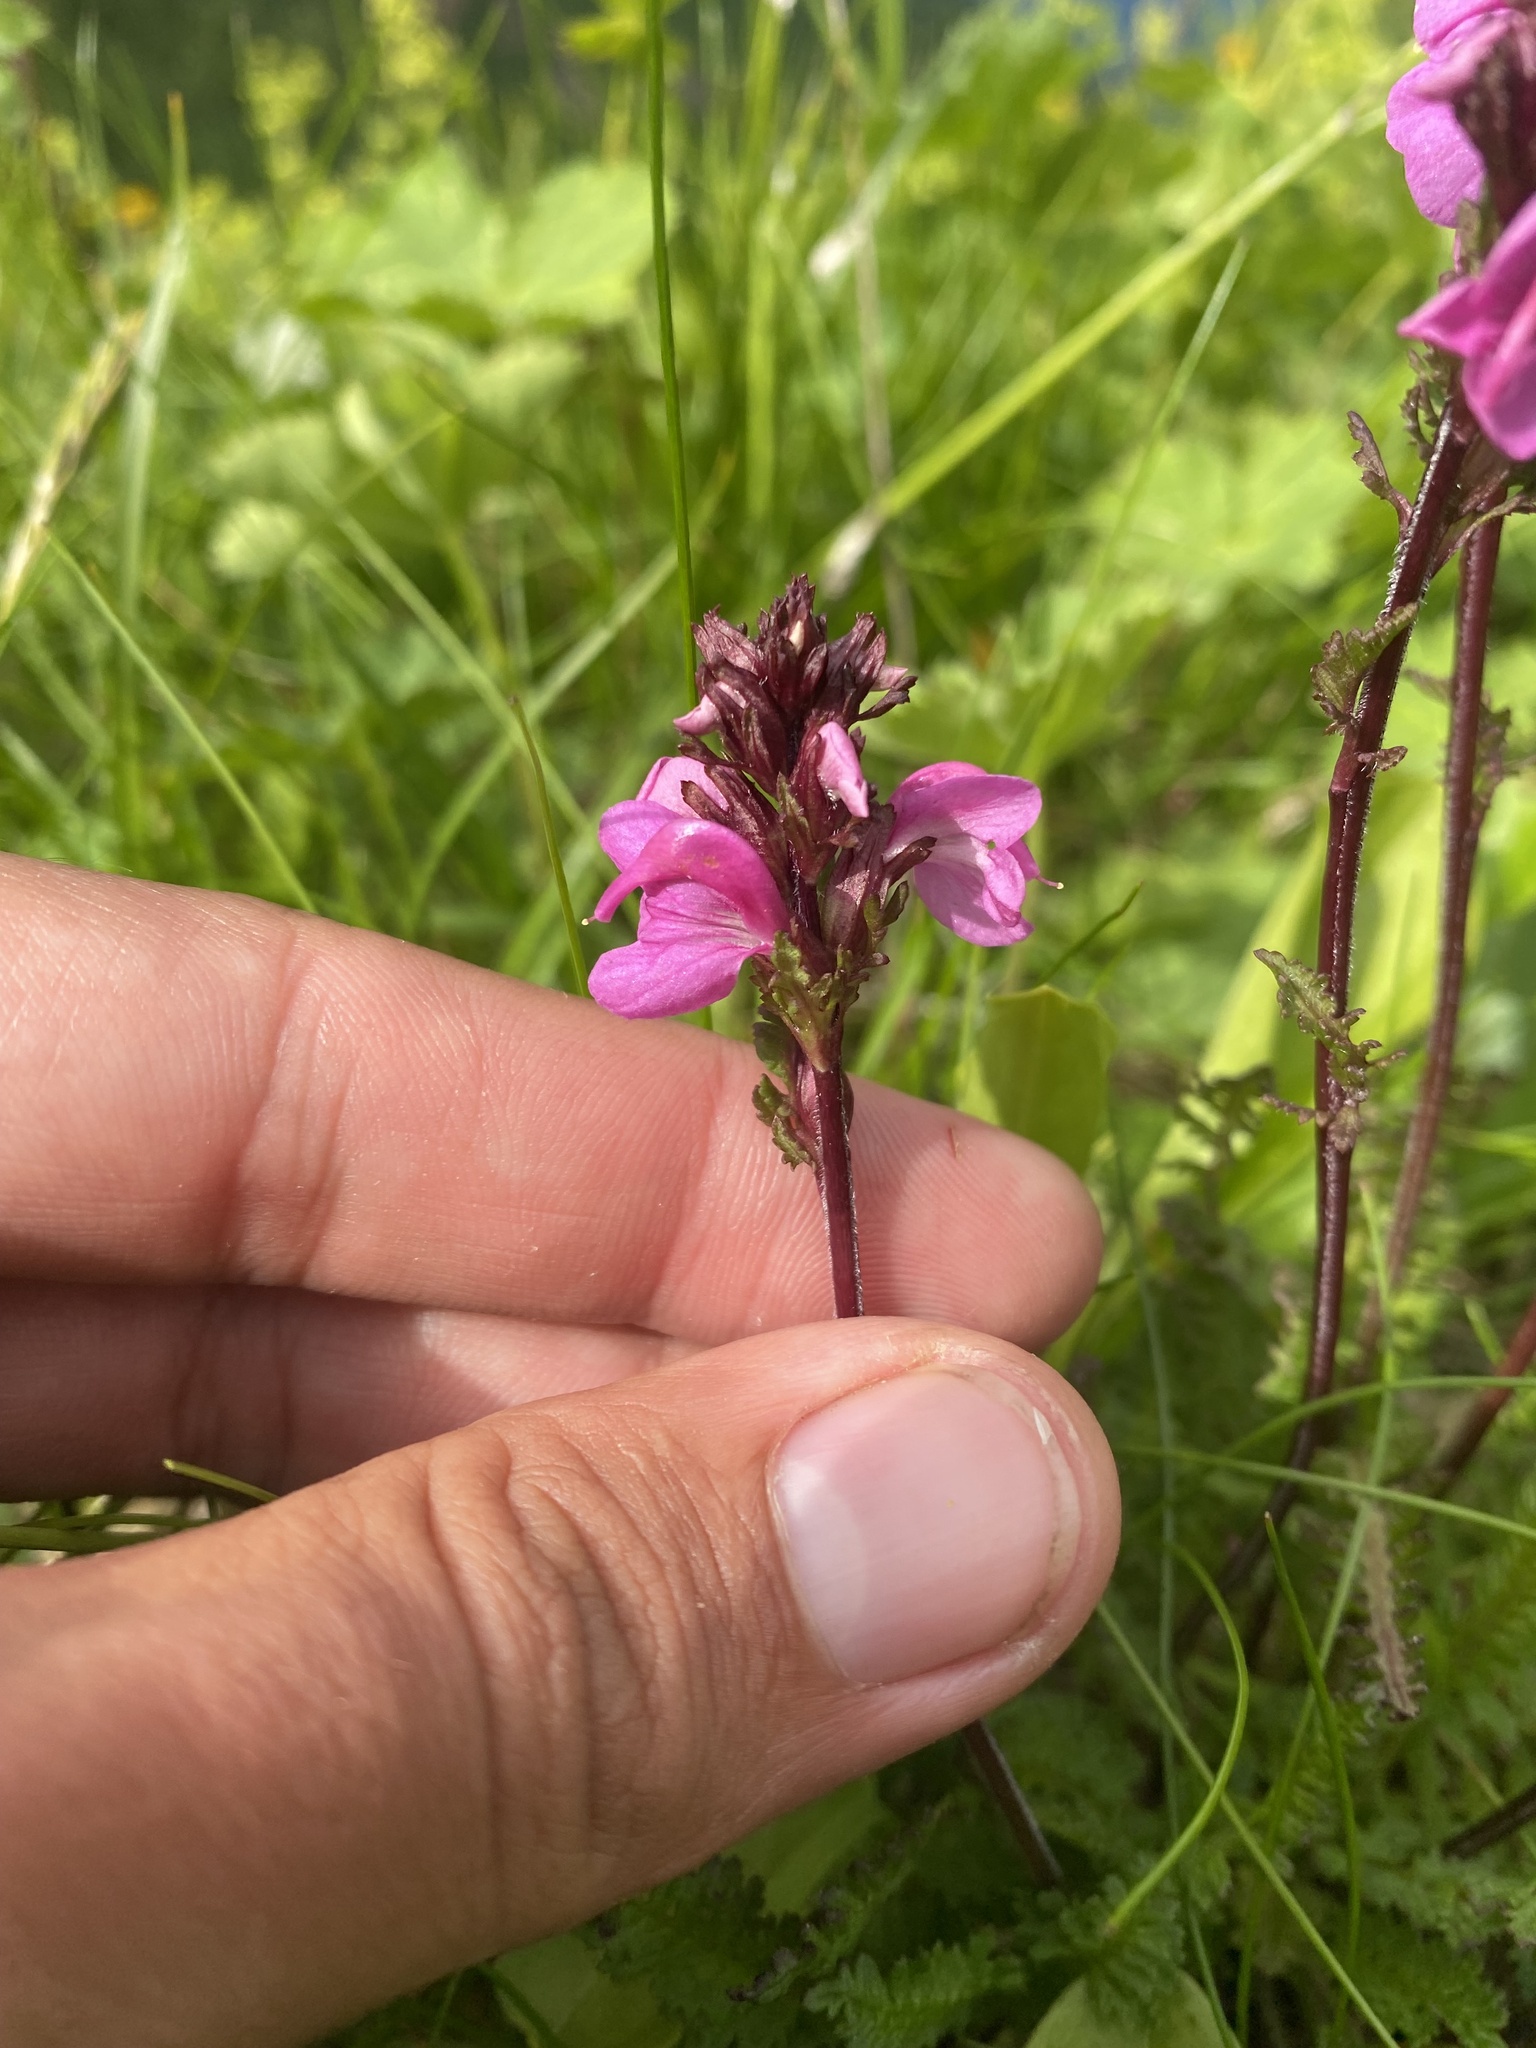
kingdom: Plantae
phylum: Tracheophyta
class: Magnoliopsida
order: Lamiales
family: Orobanchaceae
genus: Pedicularis
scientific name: Pedicularis nordmanniana
